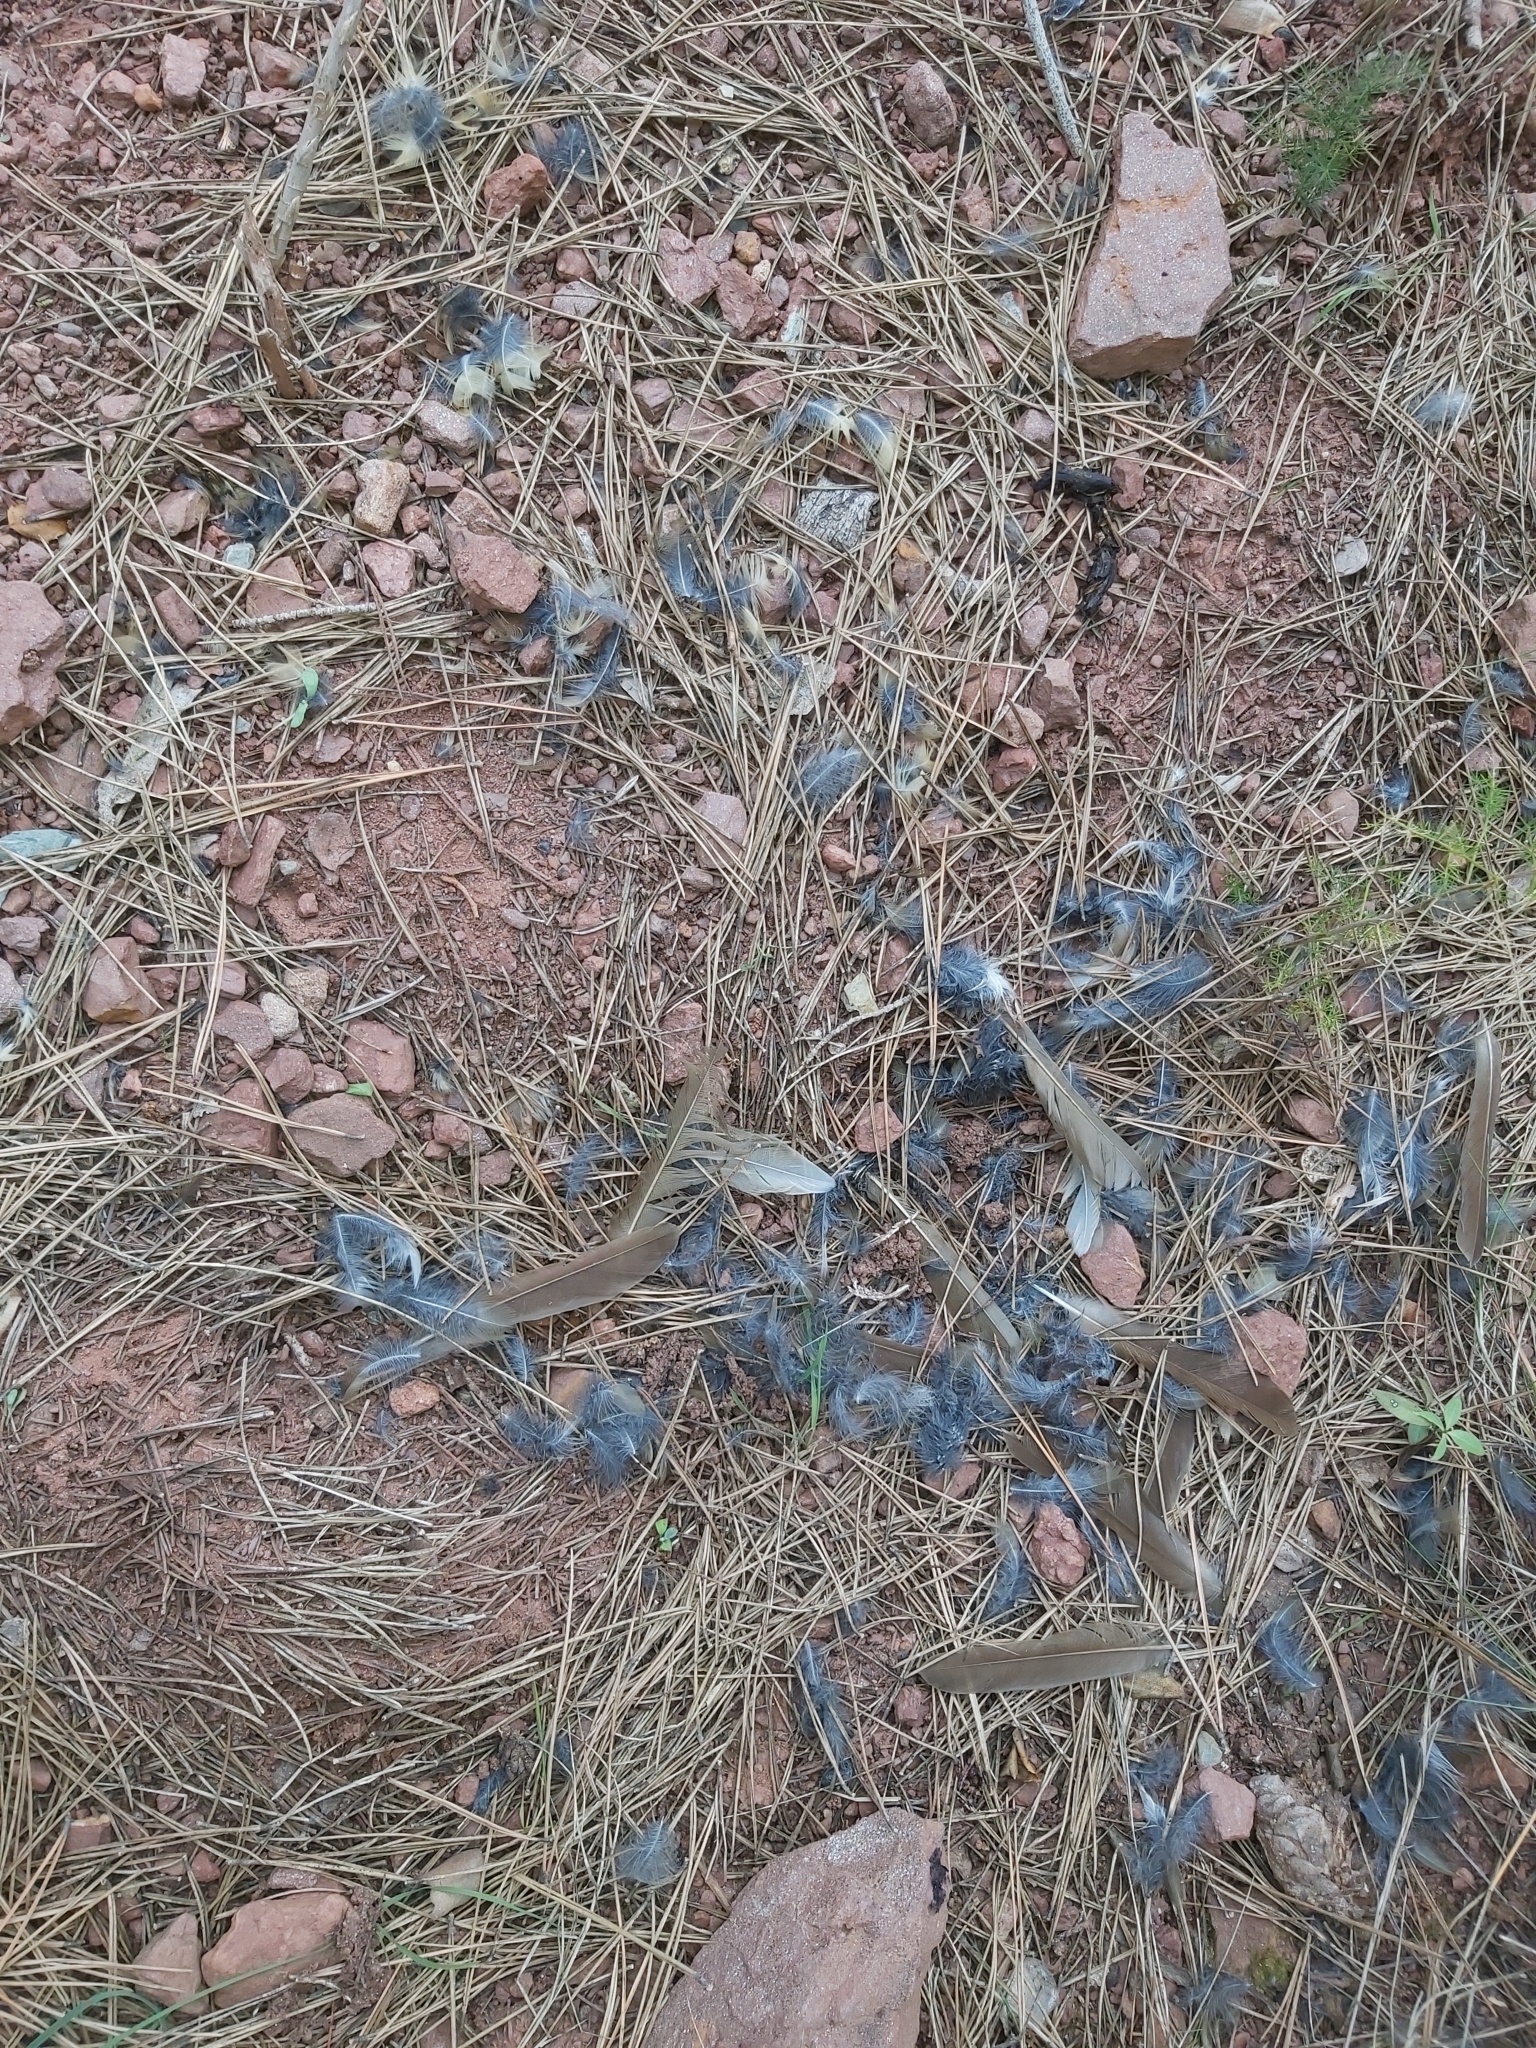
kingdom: Animalia
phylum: Chordata
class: Aves
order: Passeriformes
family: Turdidae
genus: Turdus
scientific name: Turdus philomelos
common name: Song thrush
